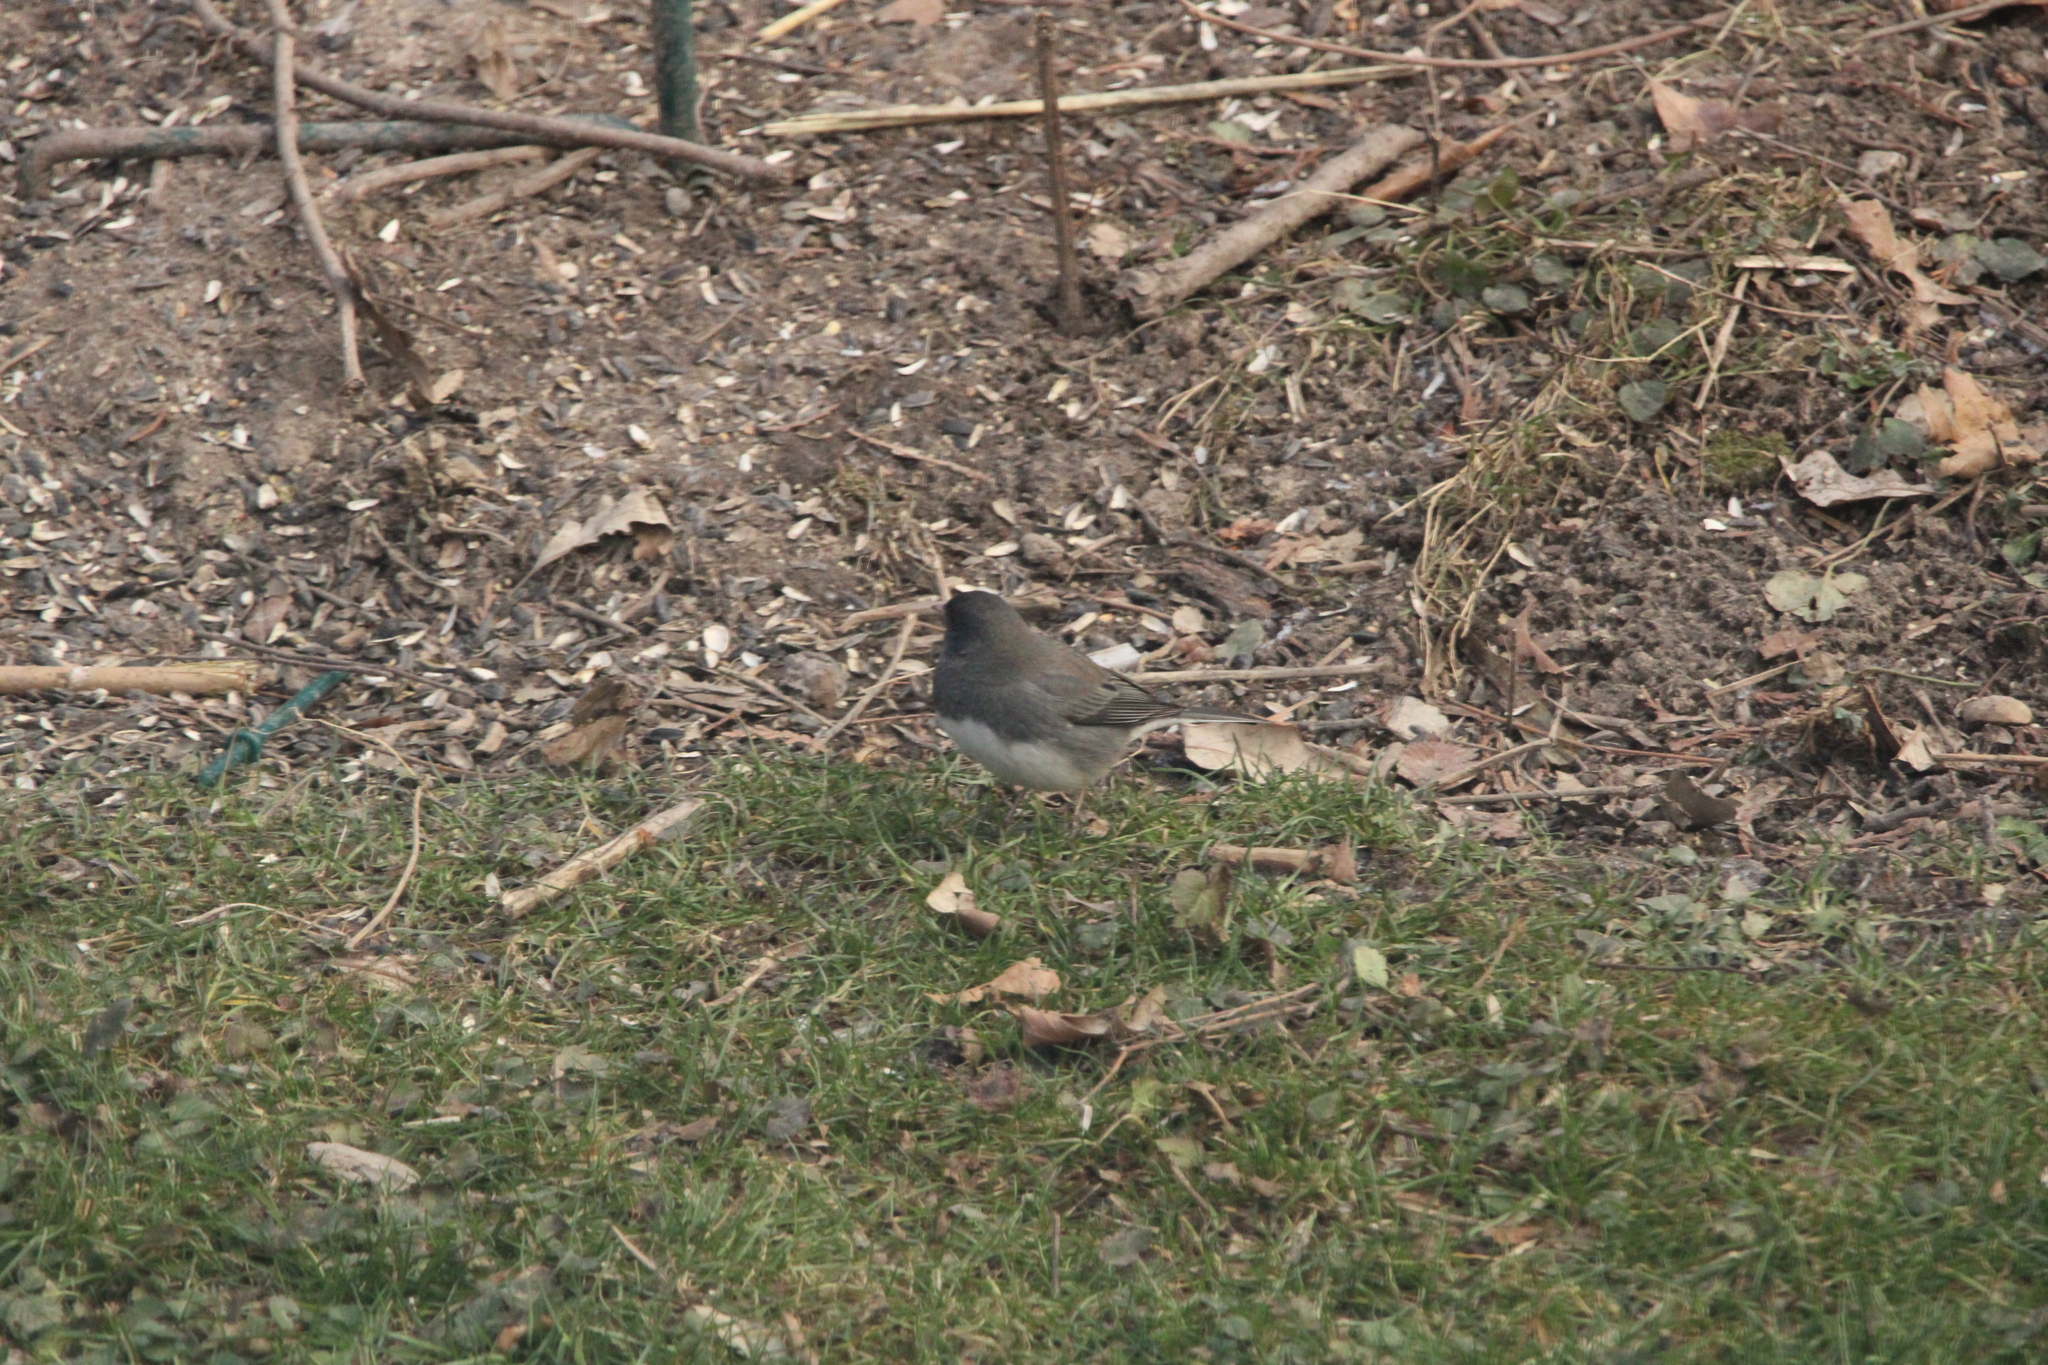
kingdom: Animalia
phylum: Chordata
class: Aves
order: Passeriformes
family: Passerellidae
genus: Junco
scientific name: Junco hyemalis
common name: Dark-eyed junco
